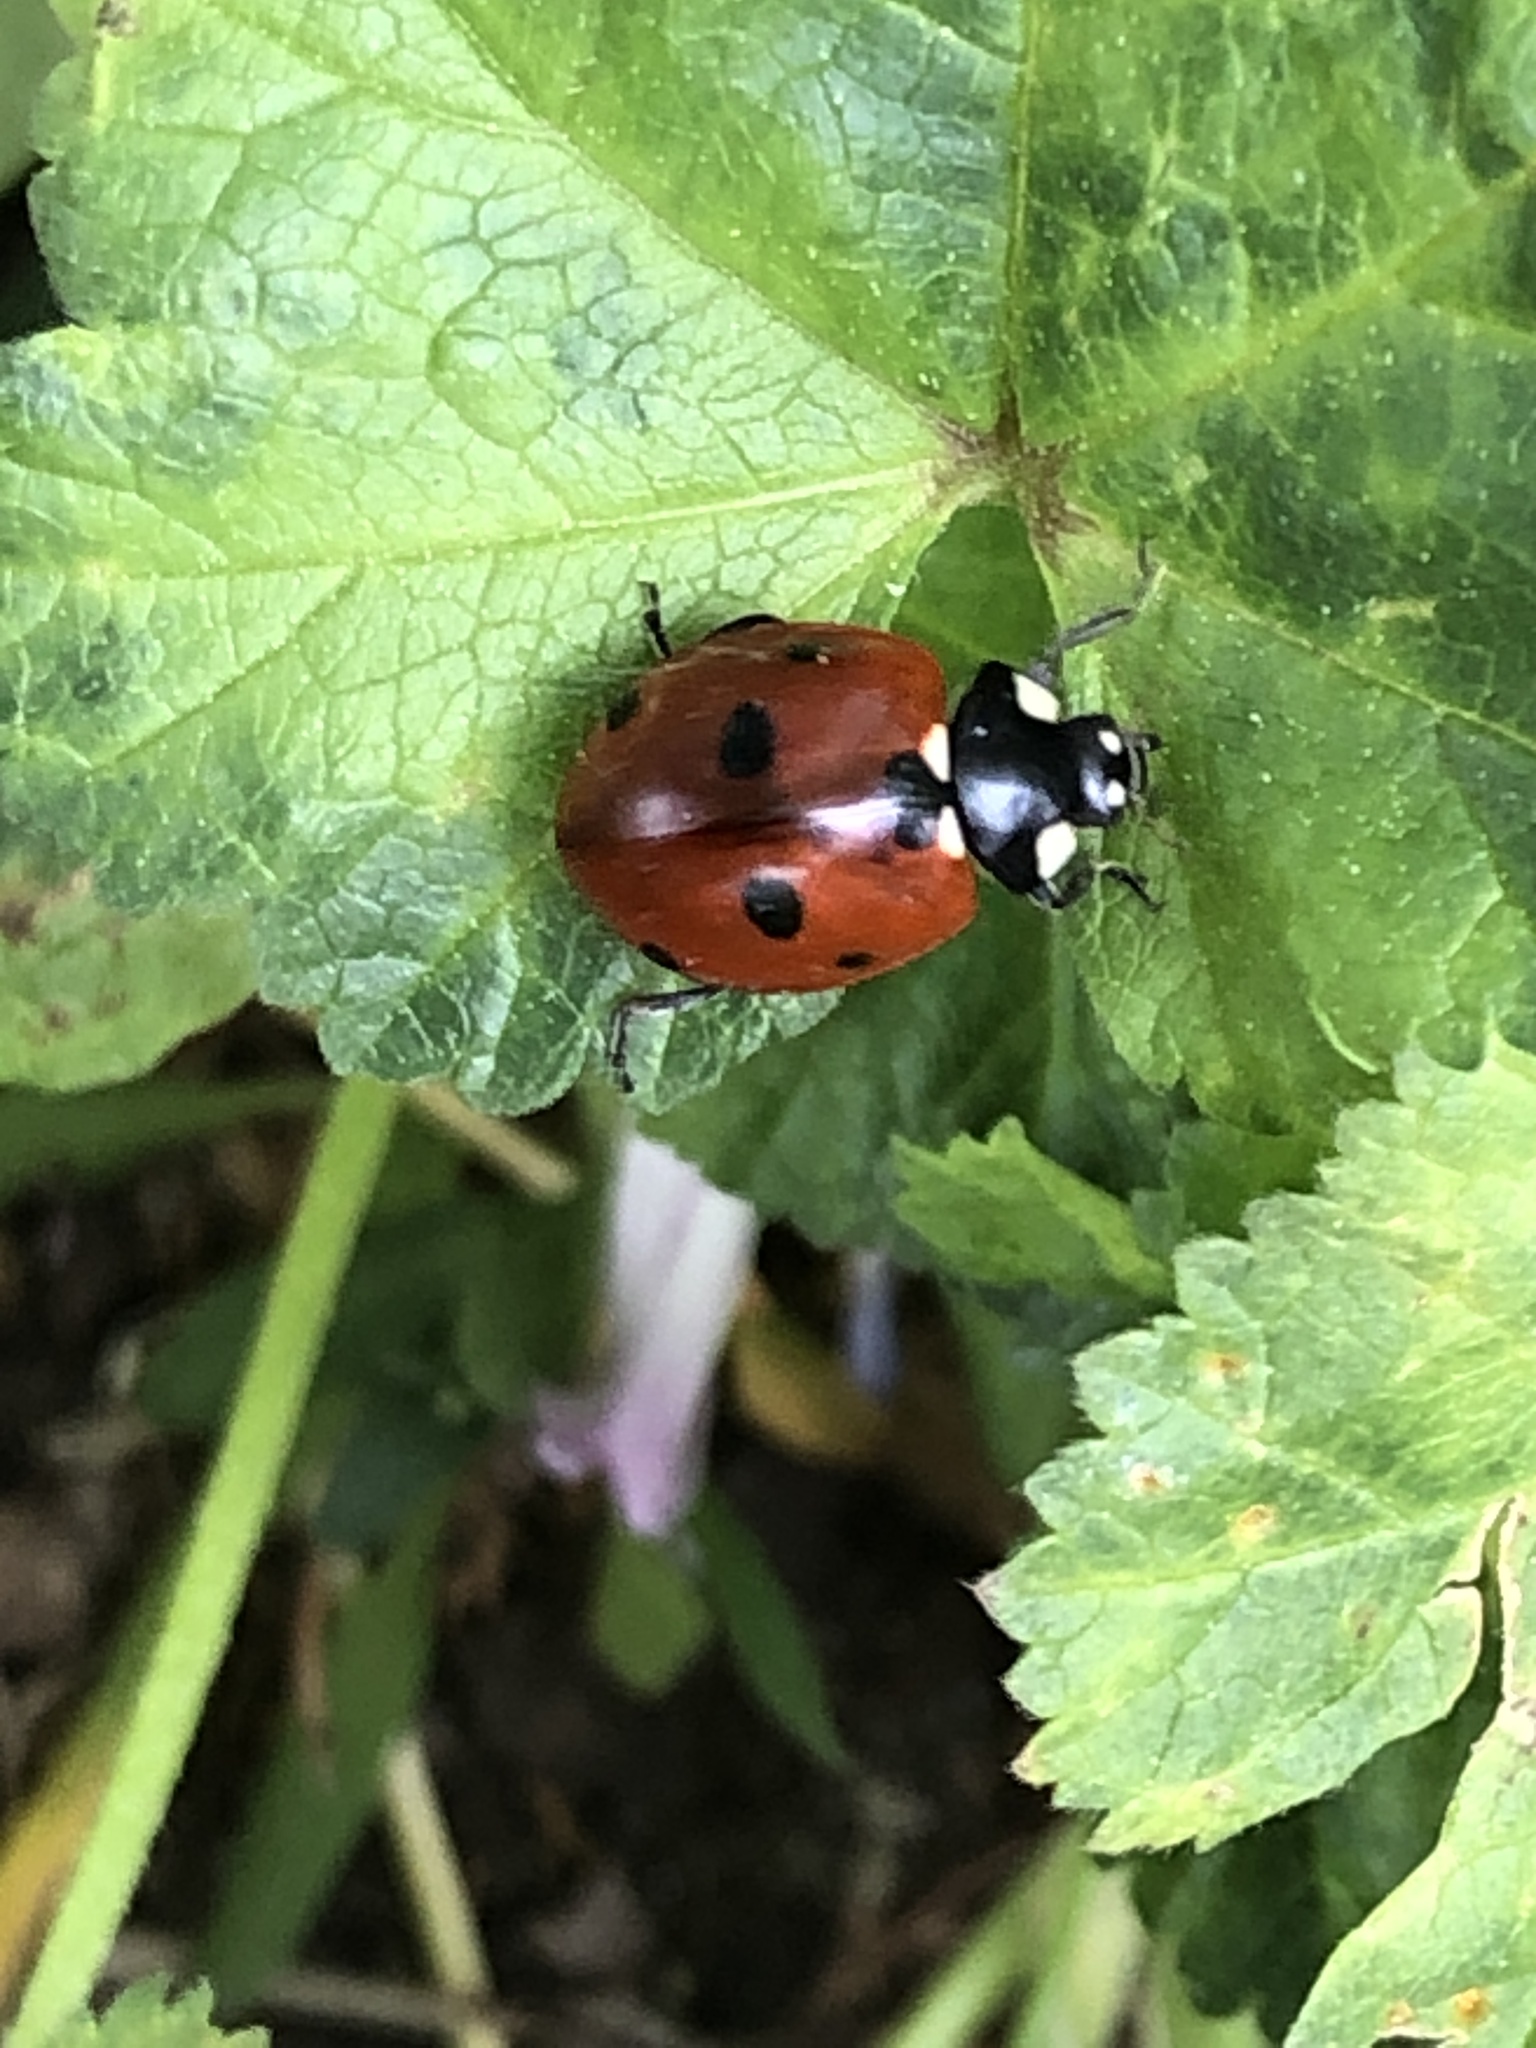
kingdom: Animalia
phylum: Arthropoda
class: Insecta
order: Coleoptera
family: Coccinellidae
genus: Coccinella
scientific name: Coccinella septempunctata
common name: Sevenspotted lady beetle
